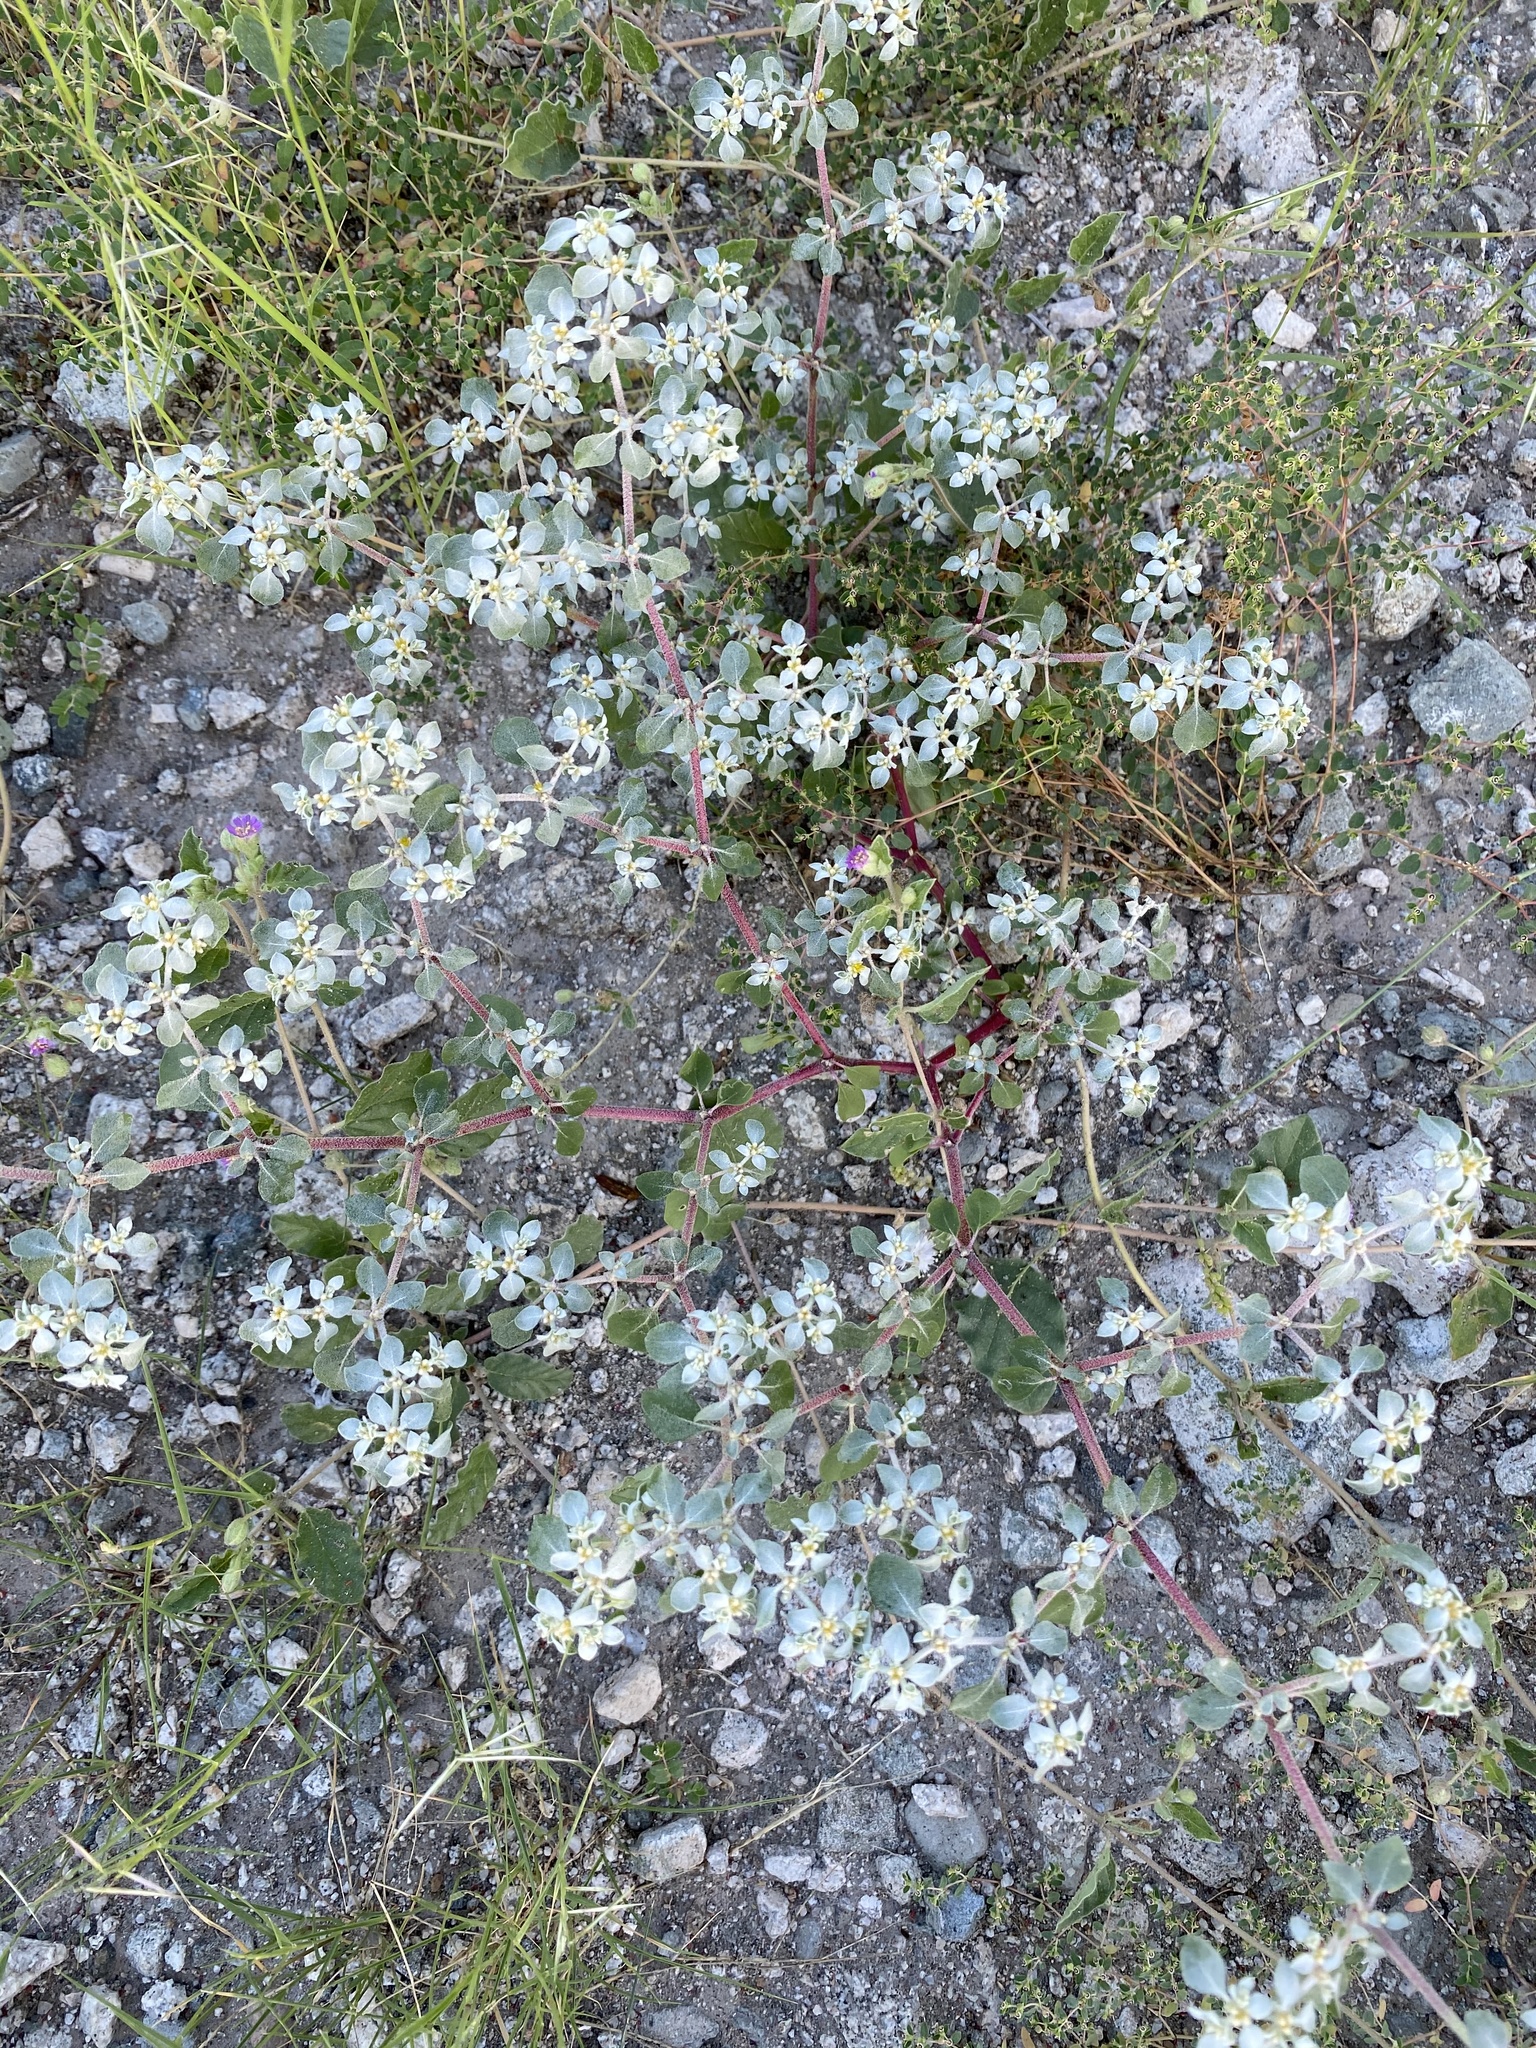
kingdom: Plantae
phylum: Tracheophyta
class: Magnoliopsida
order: Caryophyllales
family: Amaranthaceae
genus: Tidestromia
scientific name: Tidestromia lanuginosa
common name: Woolly tidestromia
